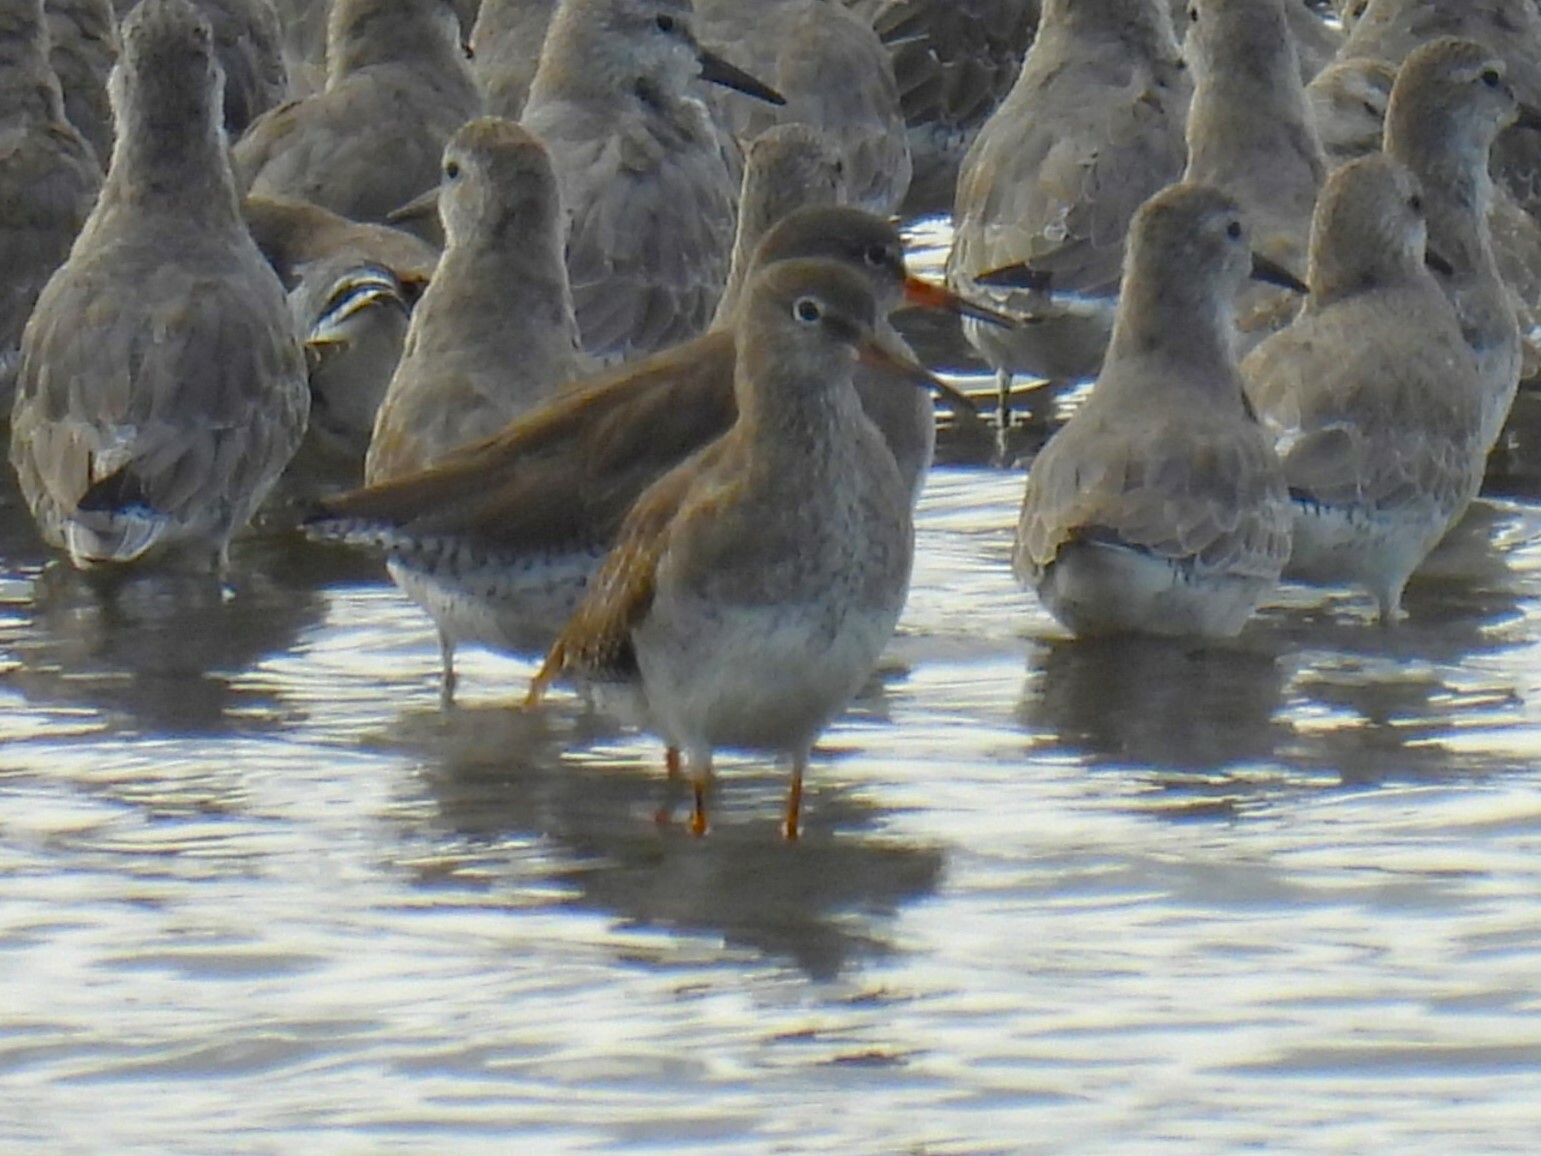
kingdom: Animalia
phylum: Chordata
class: Aves
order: Charadriiformes
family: Scolopacidae
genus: Tringa
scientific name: Tringa totanus
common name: Common redshank
